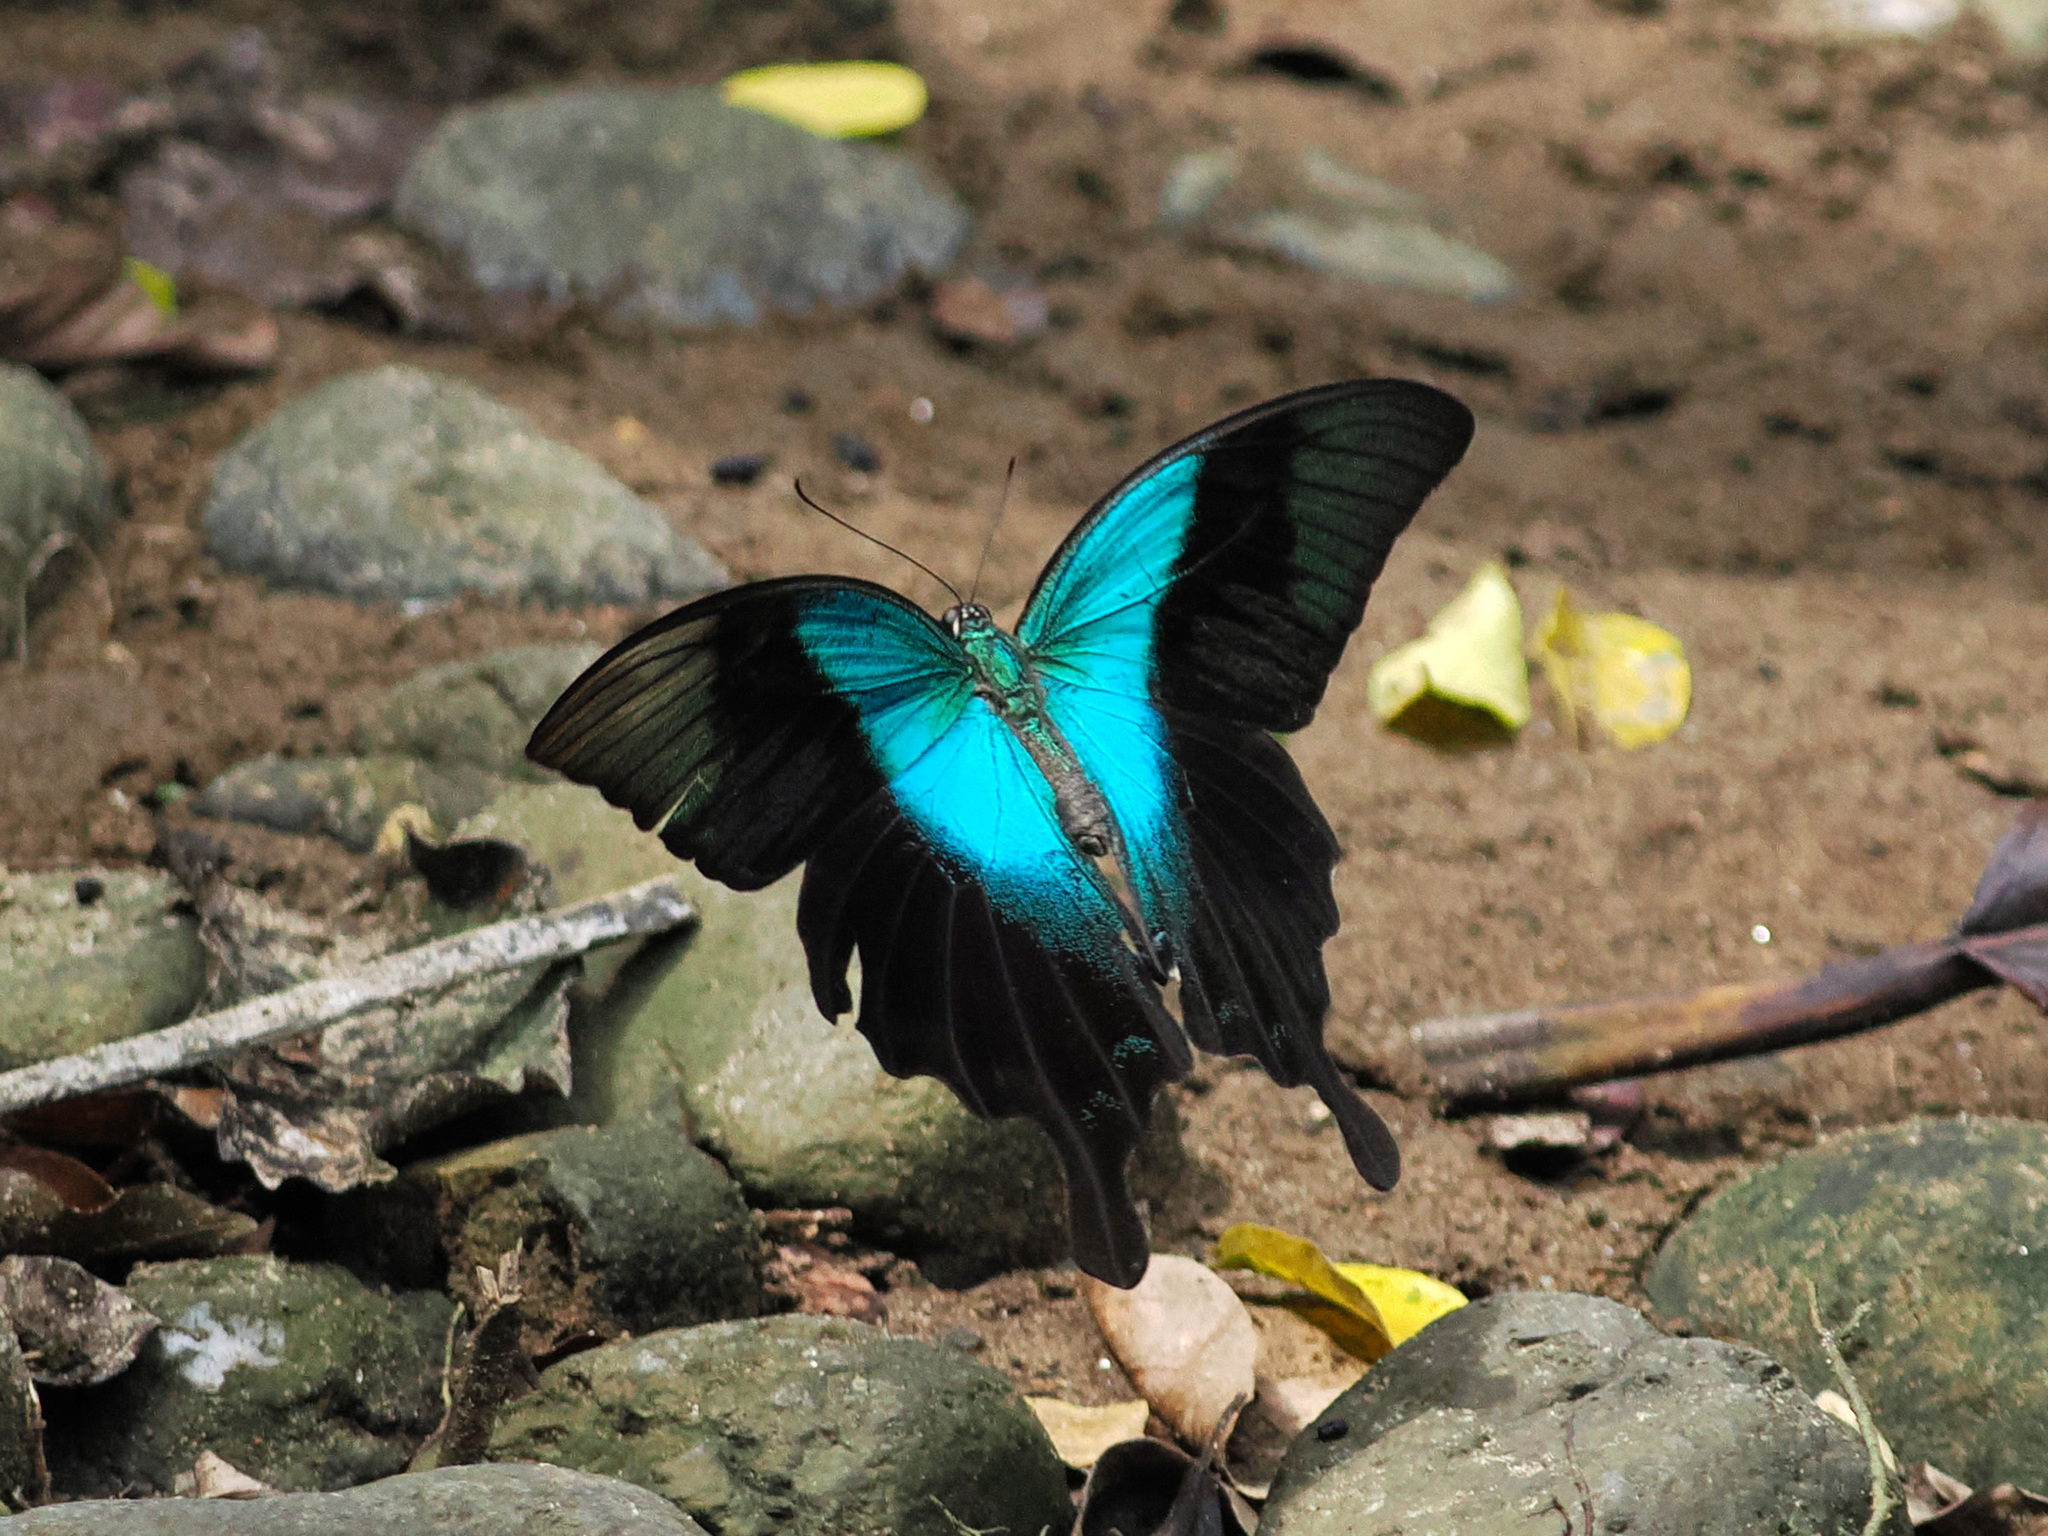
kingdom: Animalia
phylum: Arthropoda
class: Insecta
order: Lepidoptera
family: Papilionidae
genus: Papilio
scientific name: Papilio peranthus
